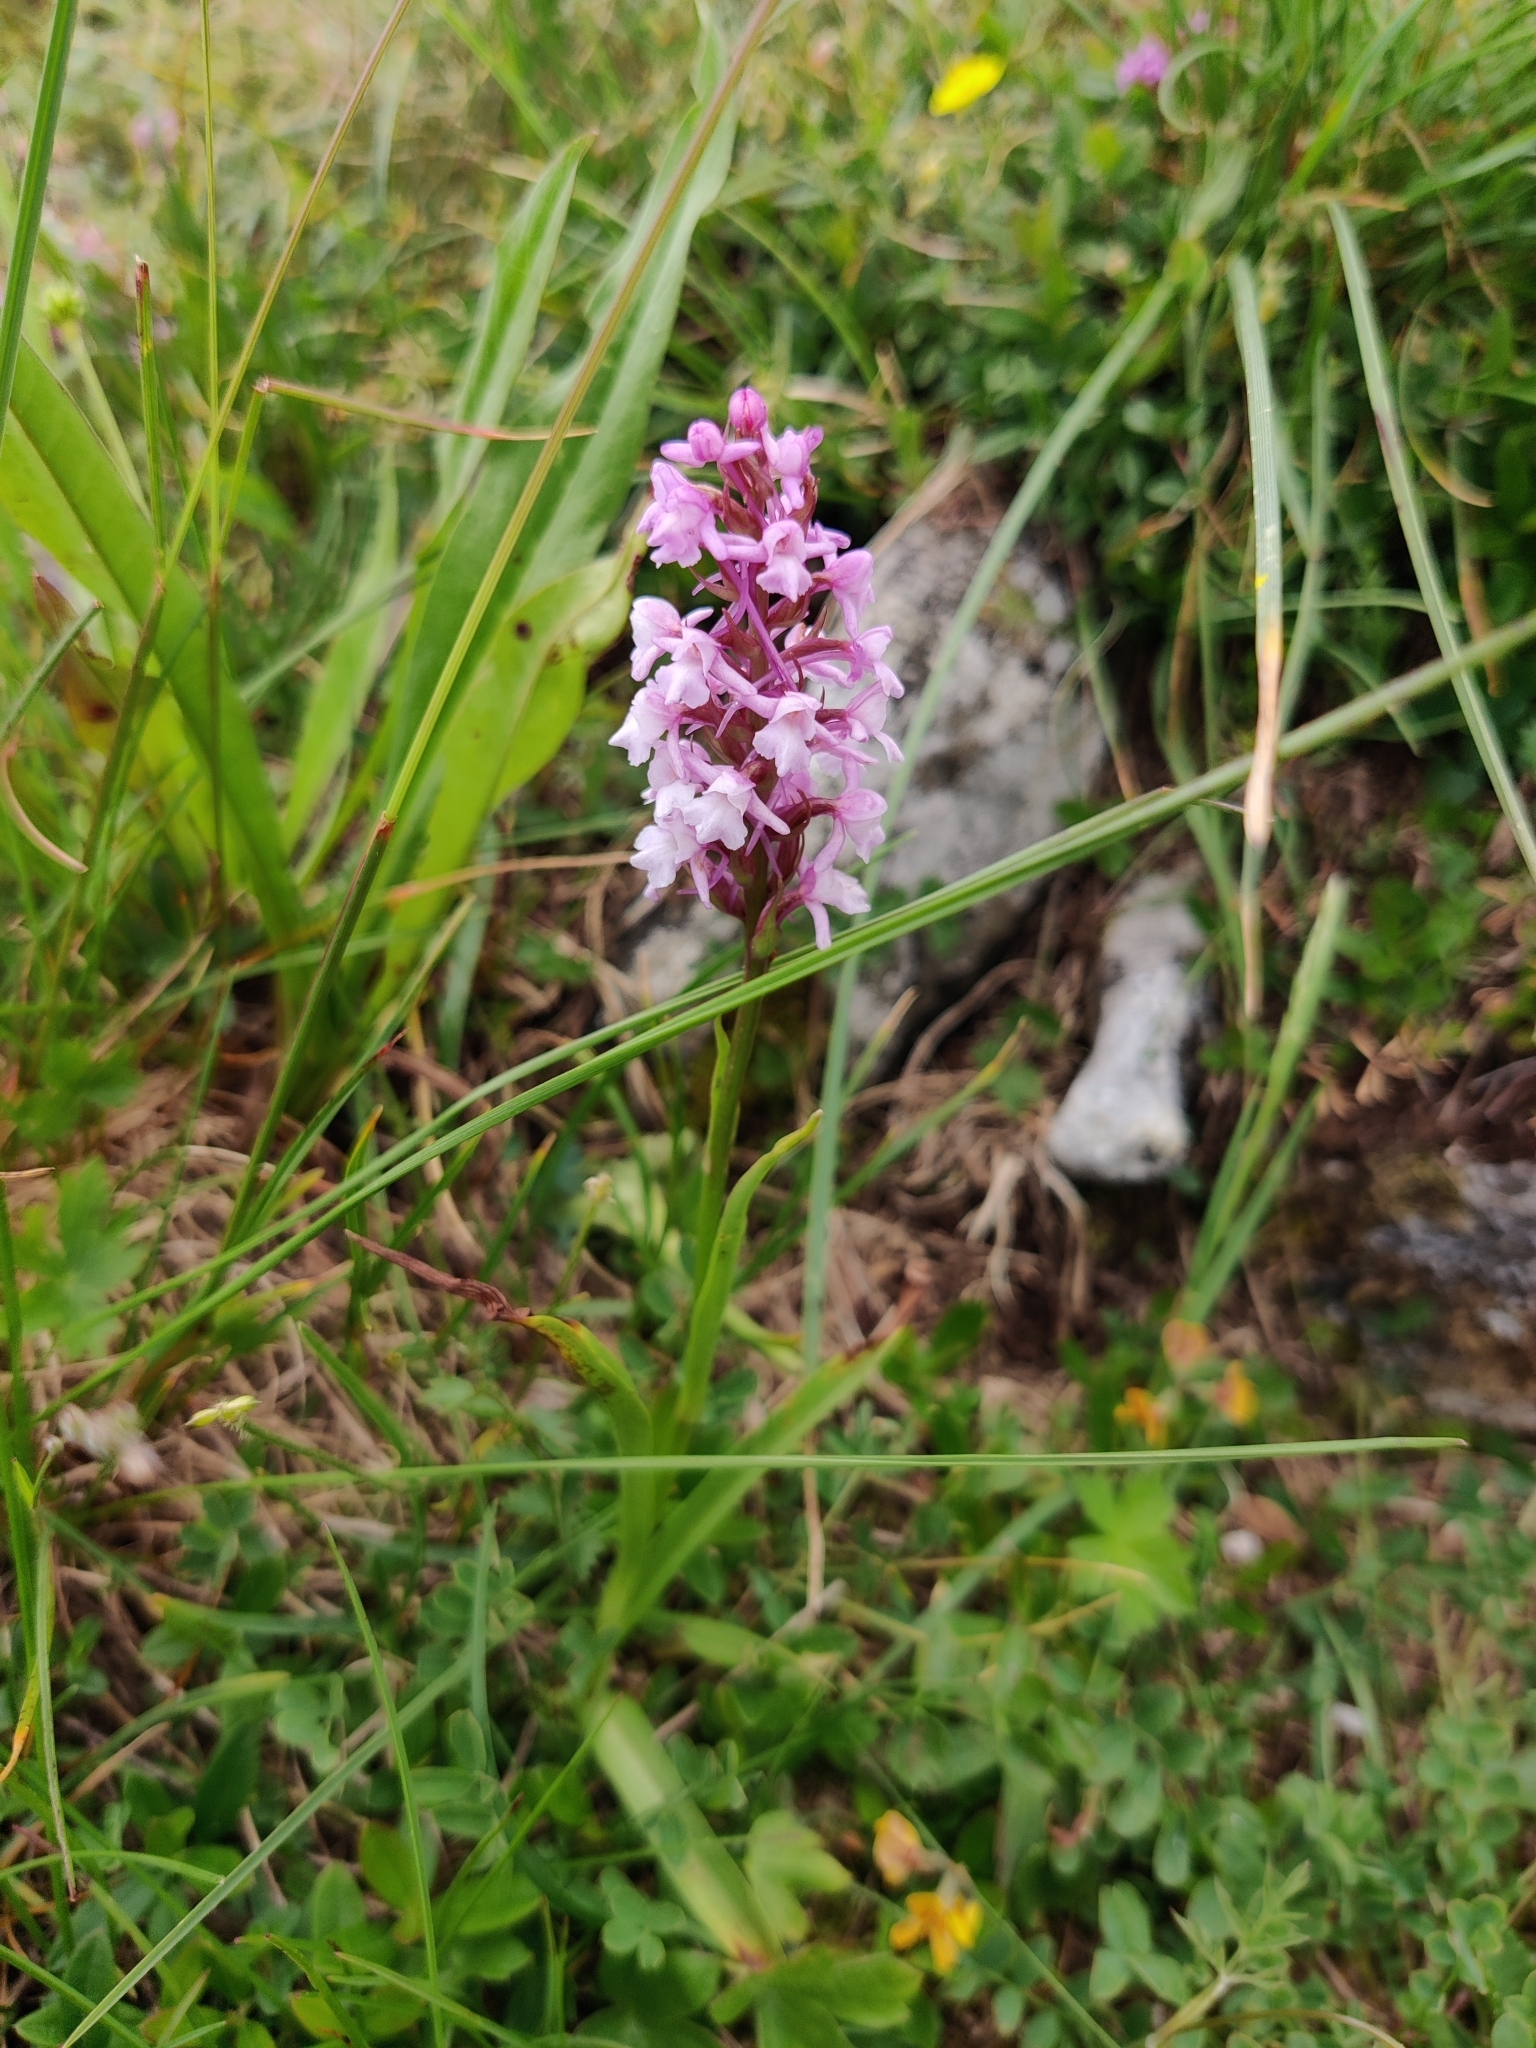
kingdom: Plantae
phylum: Tracheophyta
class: Liliopsida
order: Asparagales
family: Orchidaceae
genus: Gymnadenia
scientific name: Gymnadenia conopsea
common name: Fragrant orchid
